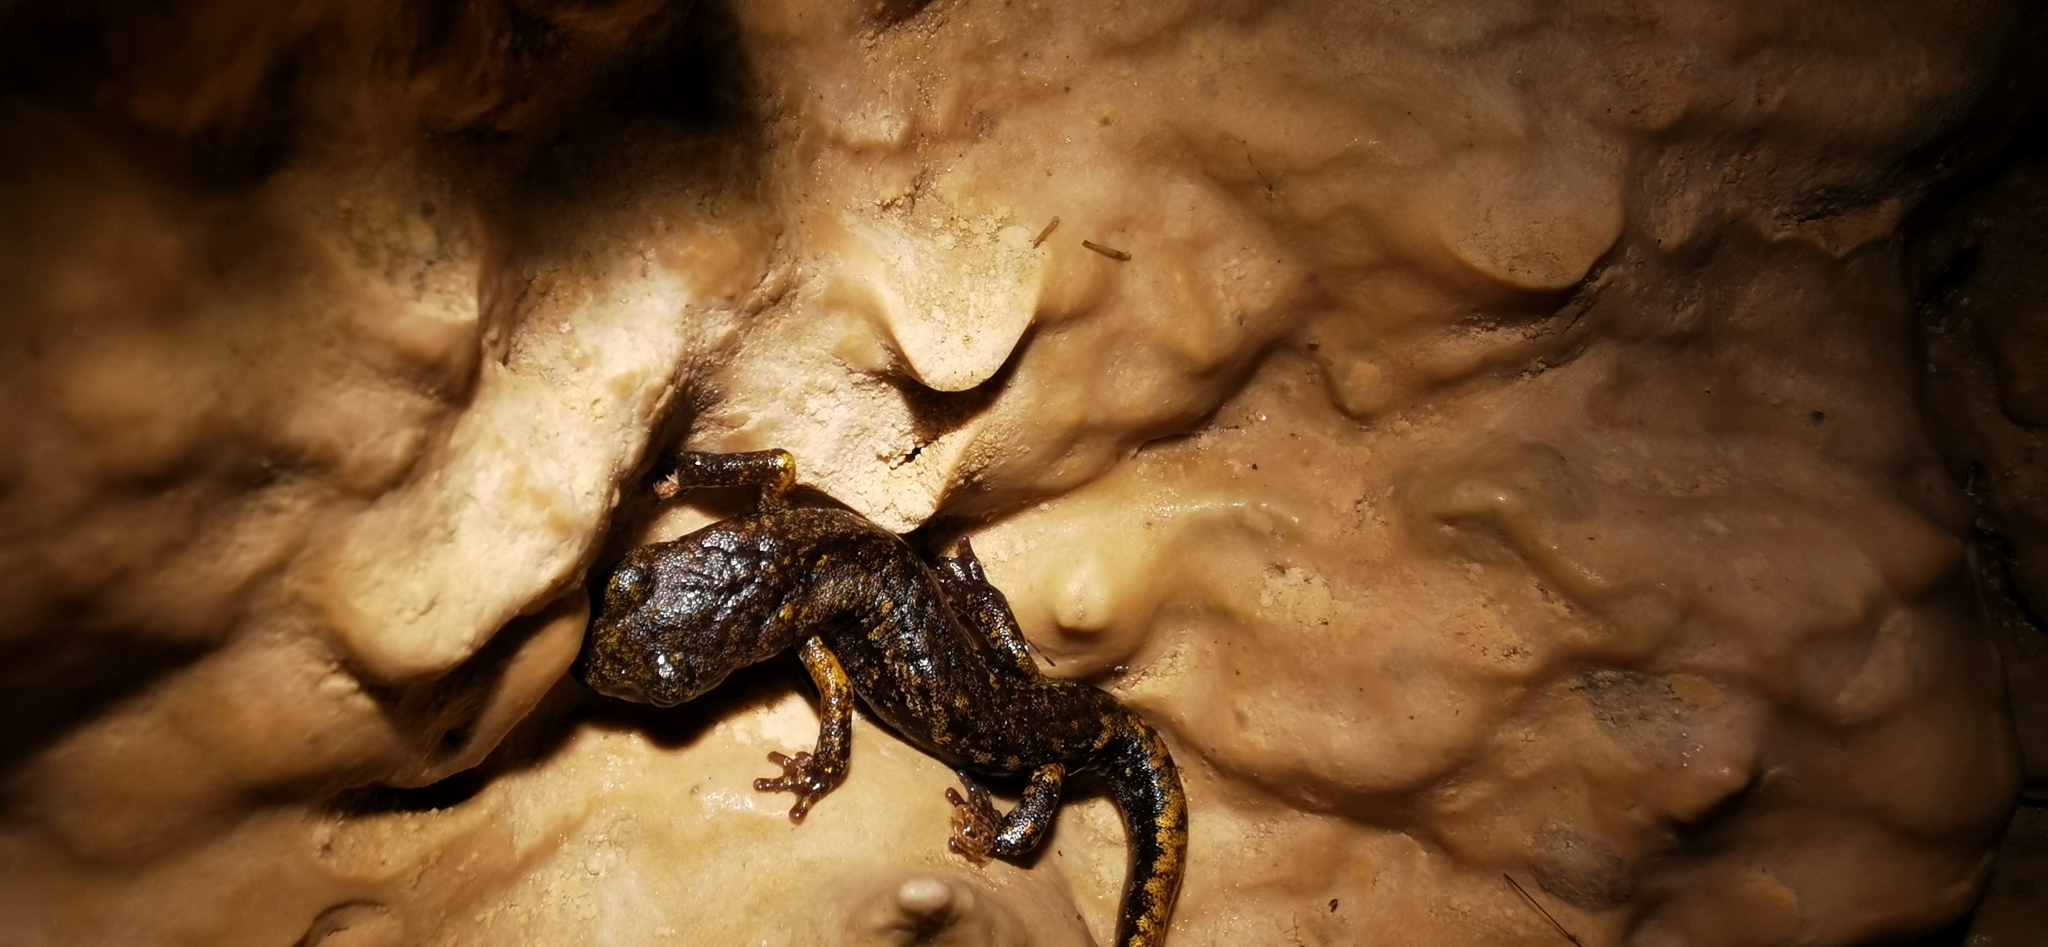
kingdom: Animalia
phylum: Chordata
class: Amphibia
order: Caudata
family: Plethodontidae
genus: Speleomantes
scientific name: Speleomantes strinatii
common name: French cave salamander
